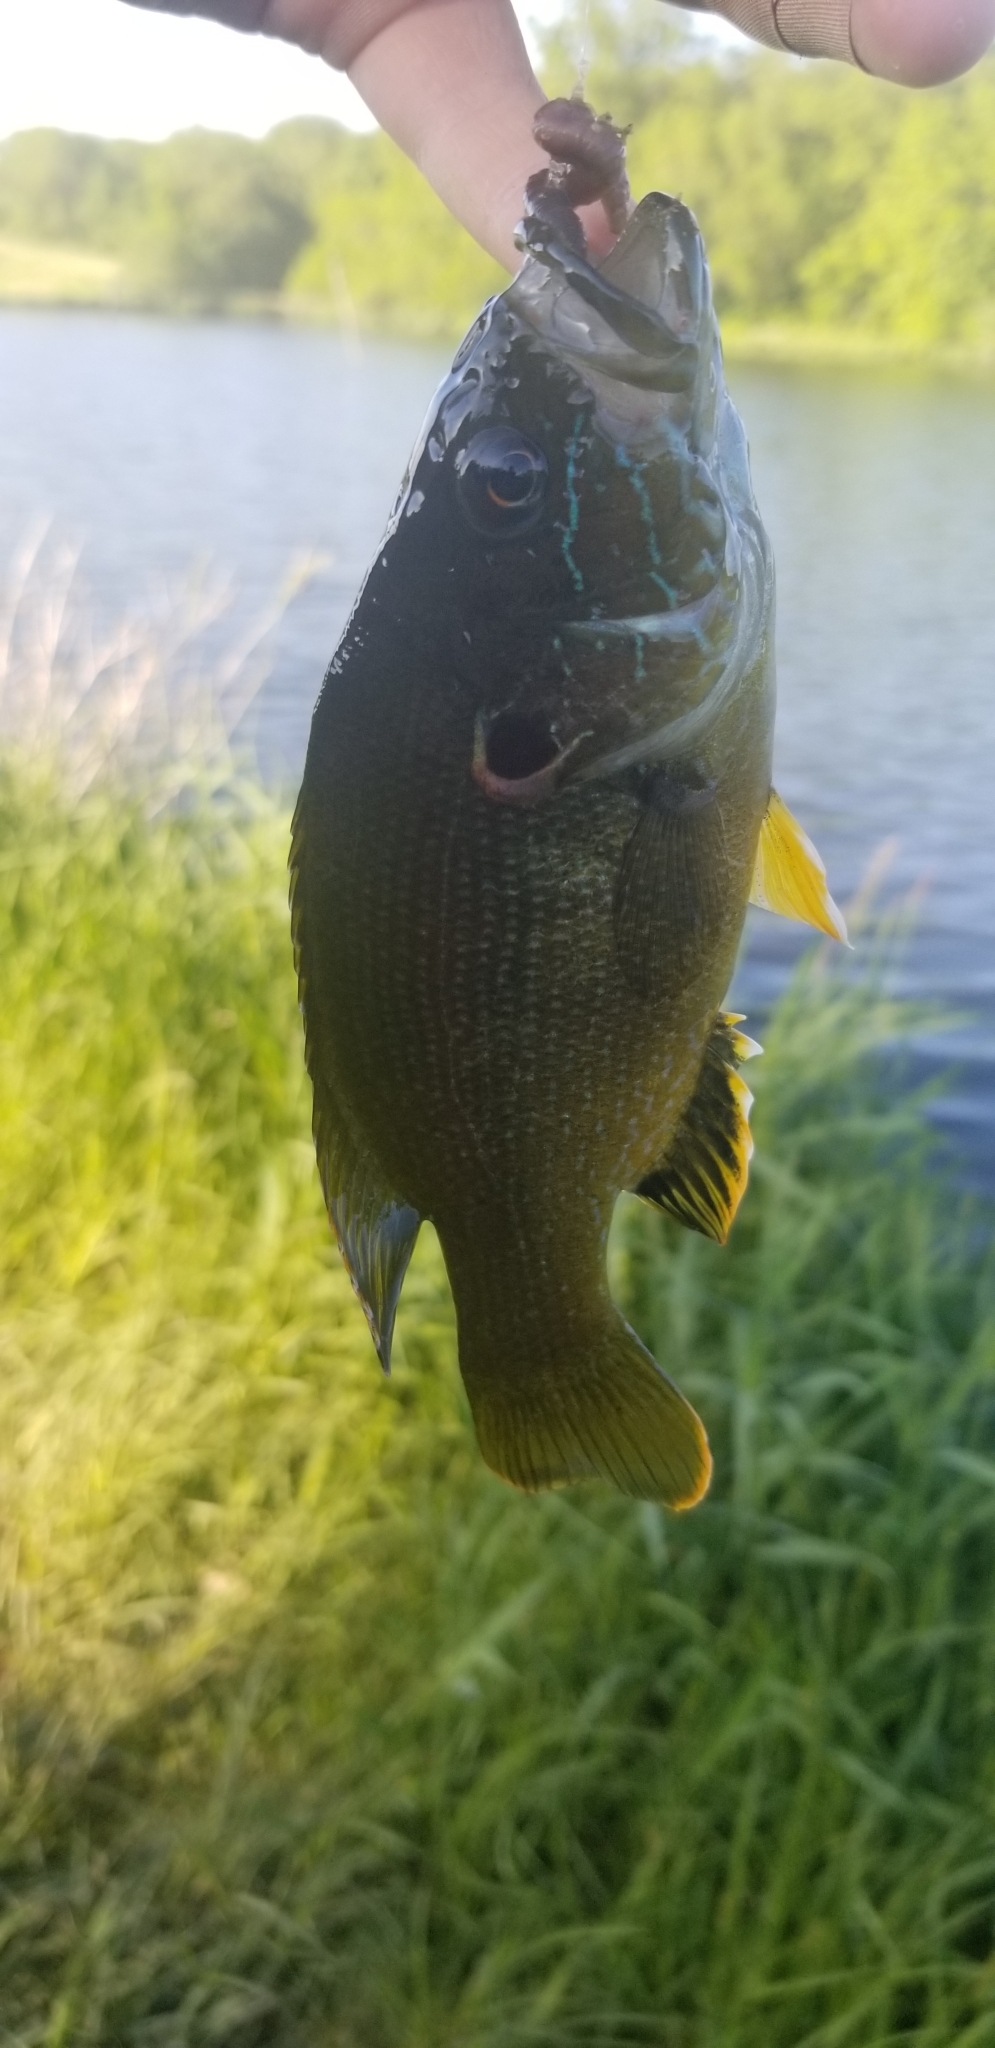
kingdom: Animalia
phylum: Chordata
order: Perciformes
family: Centrarchidae
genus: Lepomis
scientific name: Lepomis cyanellus
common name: Green sunfish
